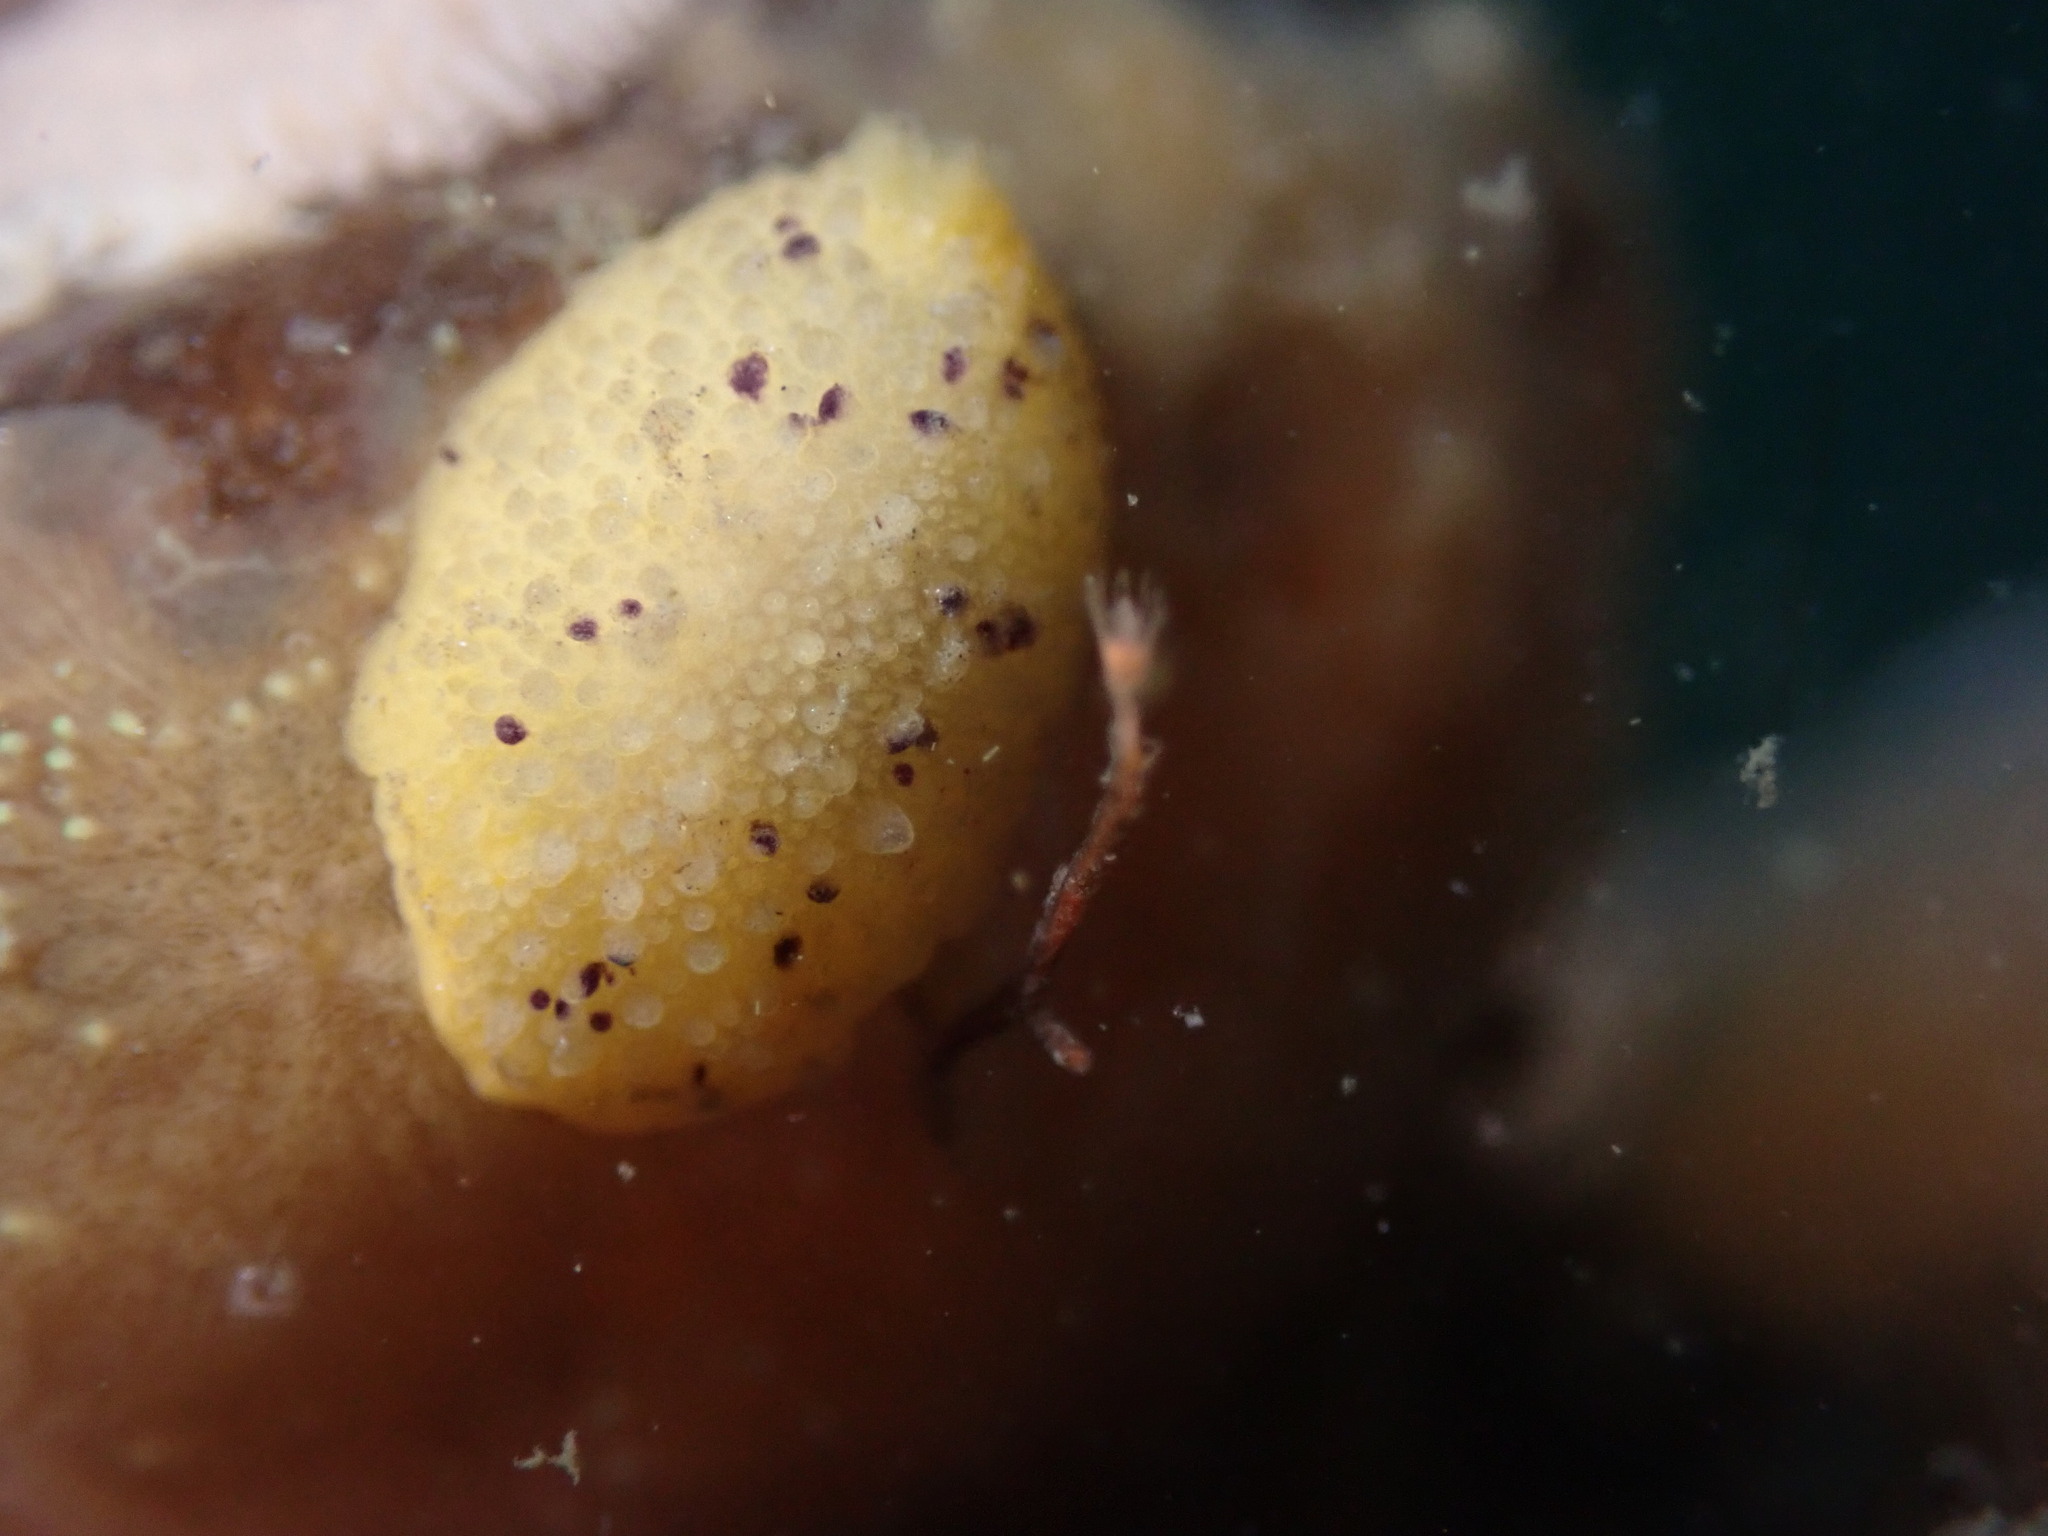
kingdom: Animalia
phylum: Mollusca
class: Gastropoda
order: Nudibranchia
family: Dorididae
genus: Doris
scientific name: Doris montereyensis
